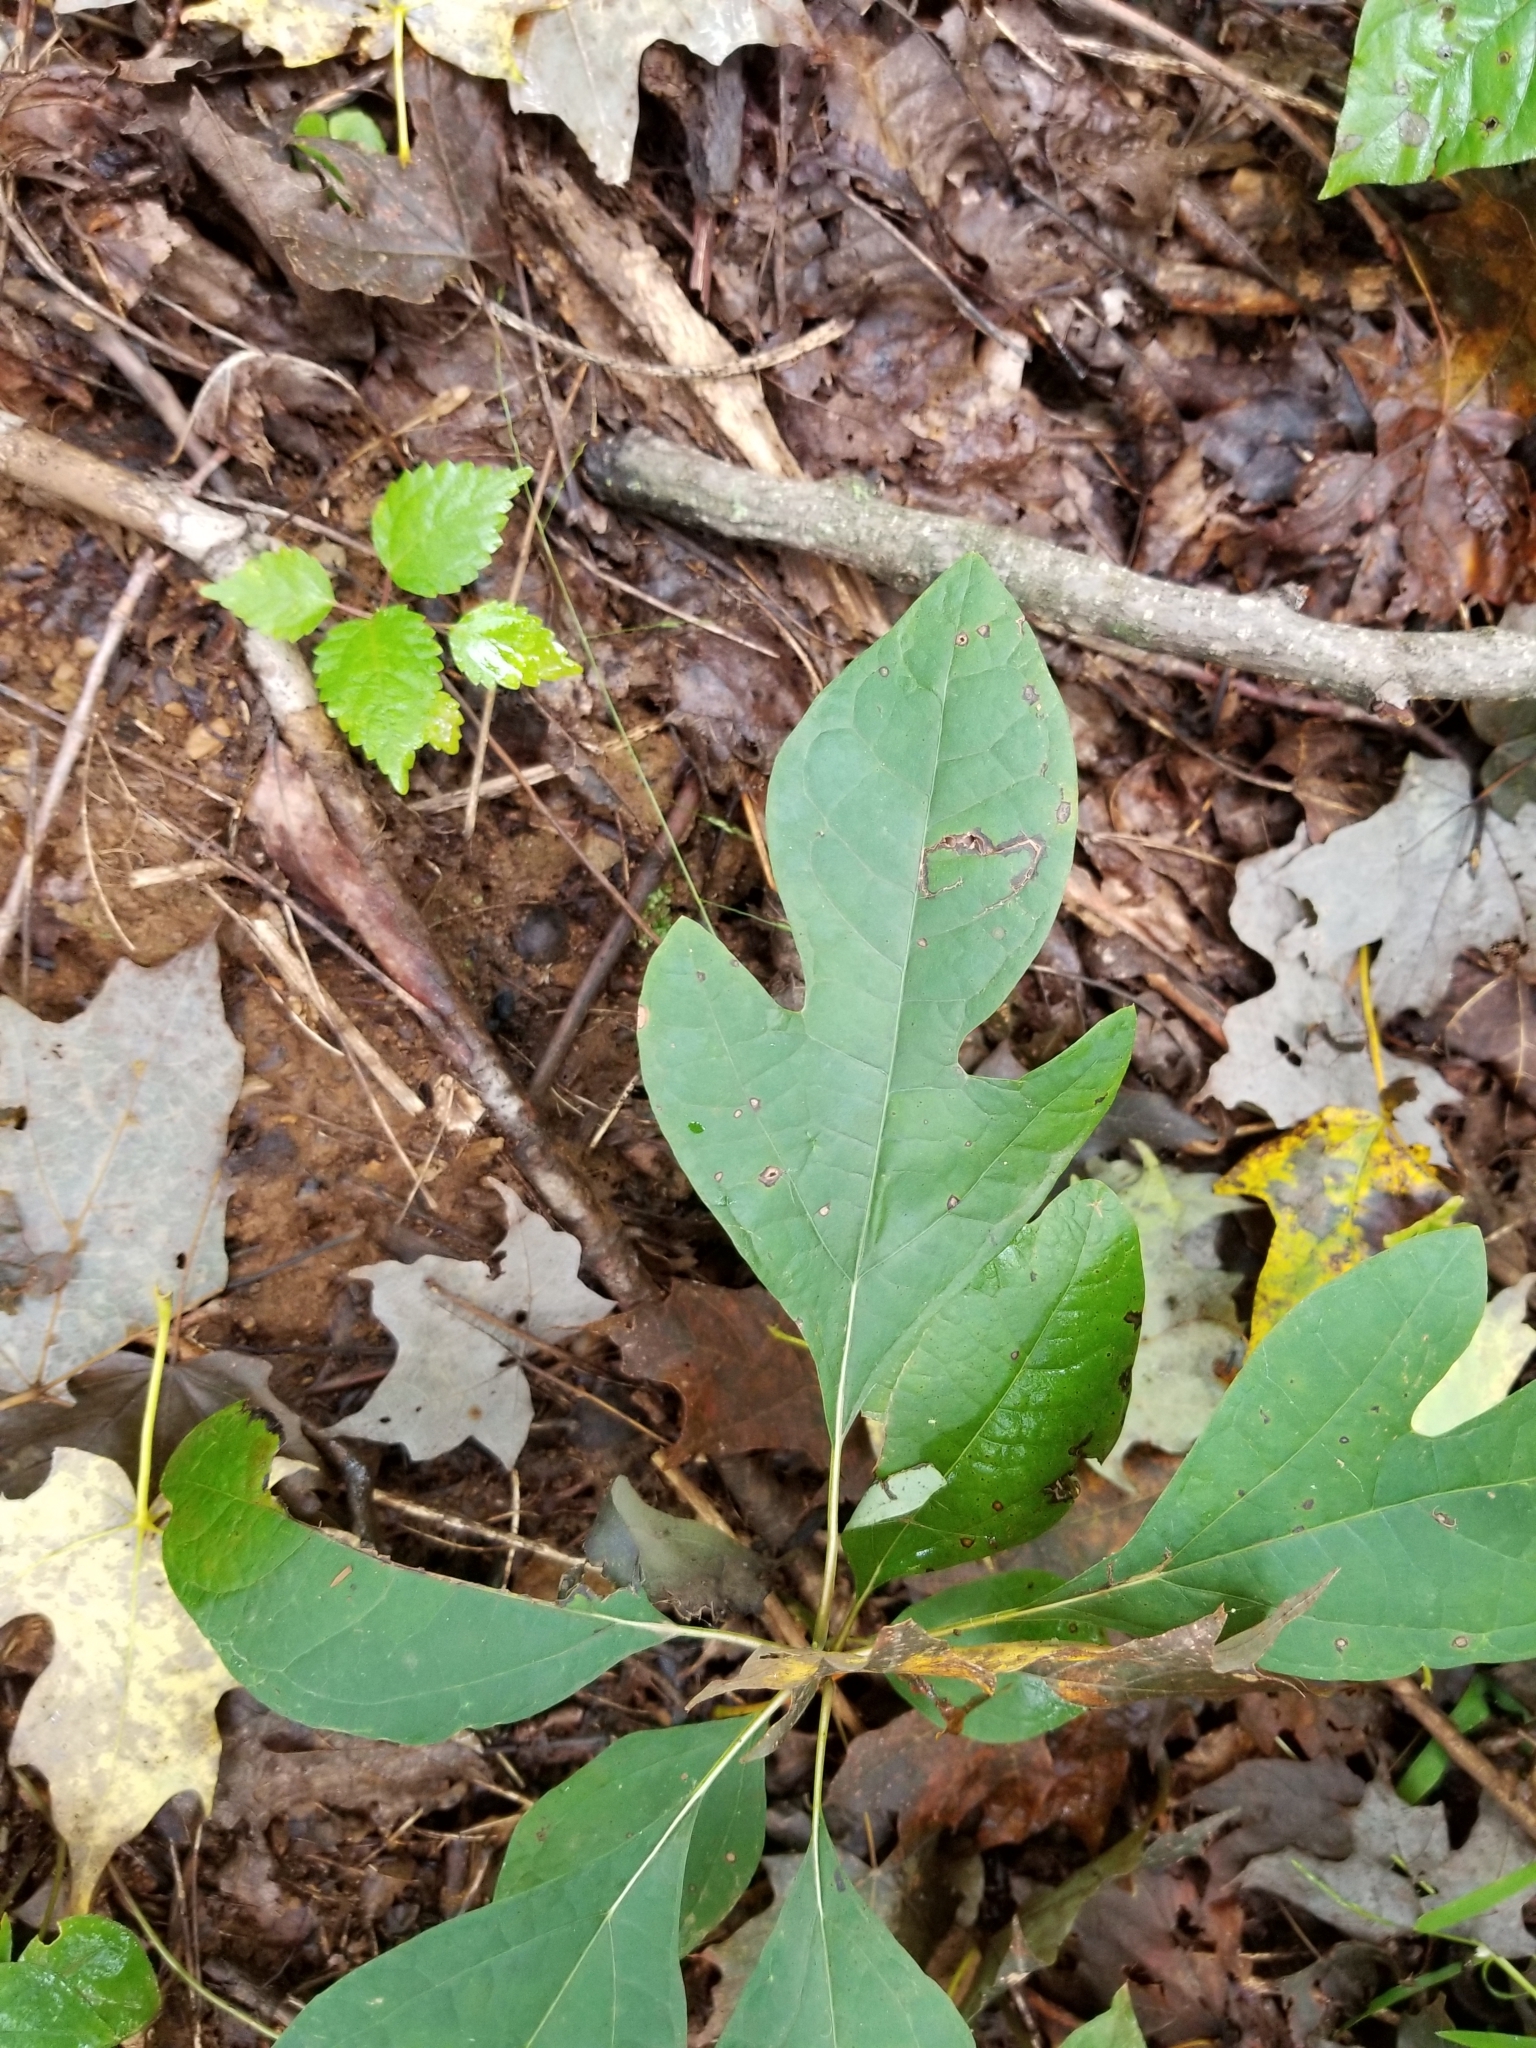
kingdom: Plantae
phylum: Tracheophyta
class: Magnoliopsida
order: Laurales
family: Lauraceae
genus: Sassafras
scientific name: Sassafras albidum
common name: Sassafras
